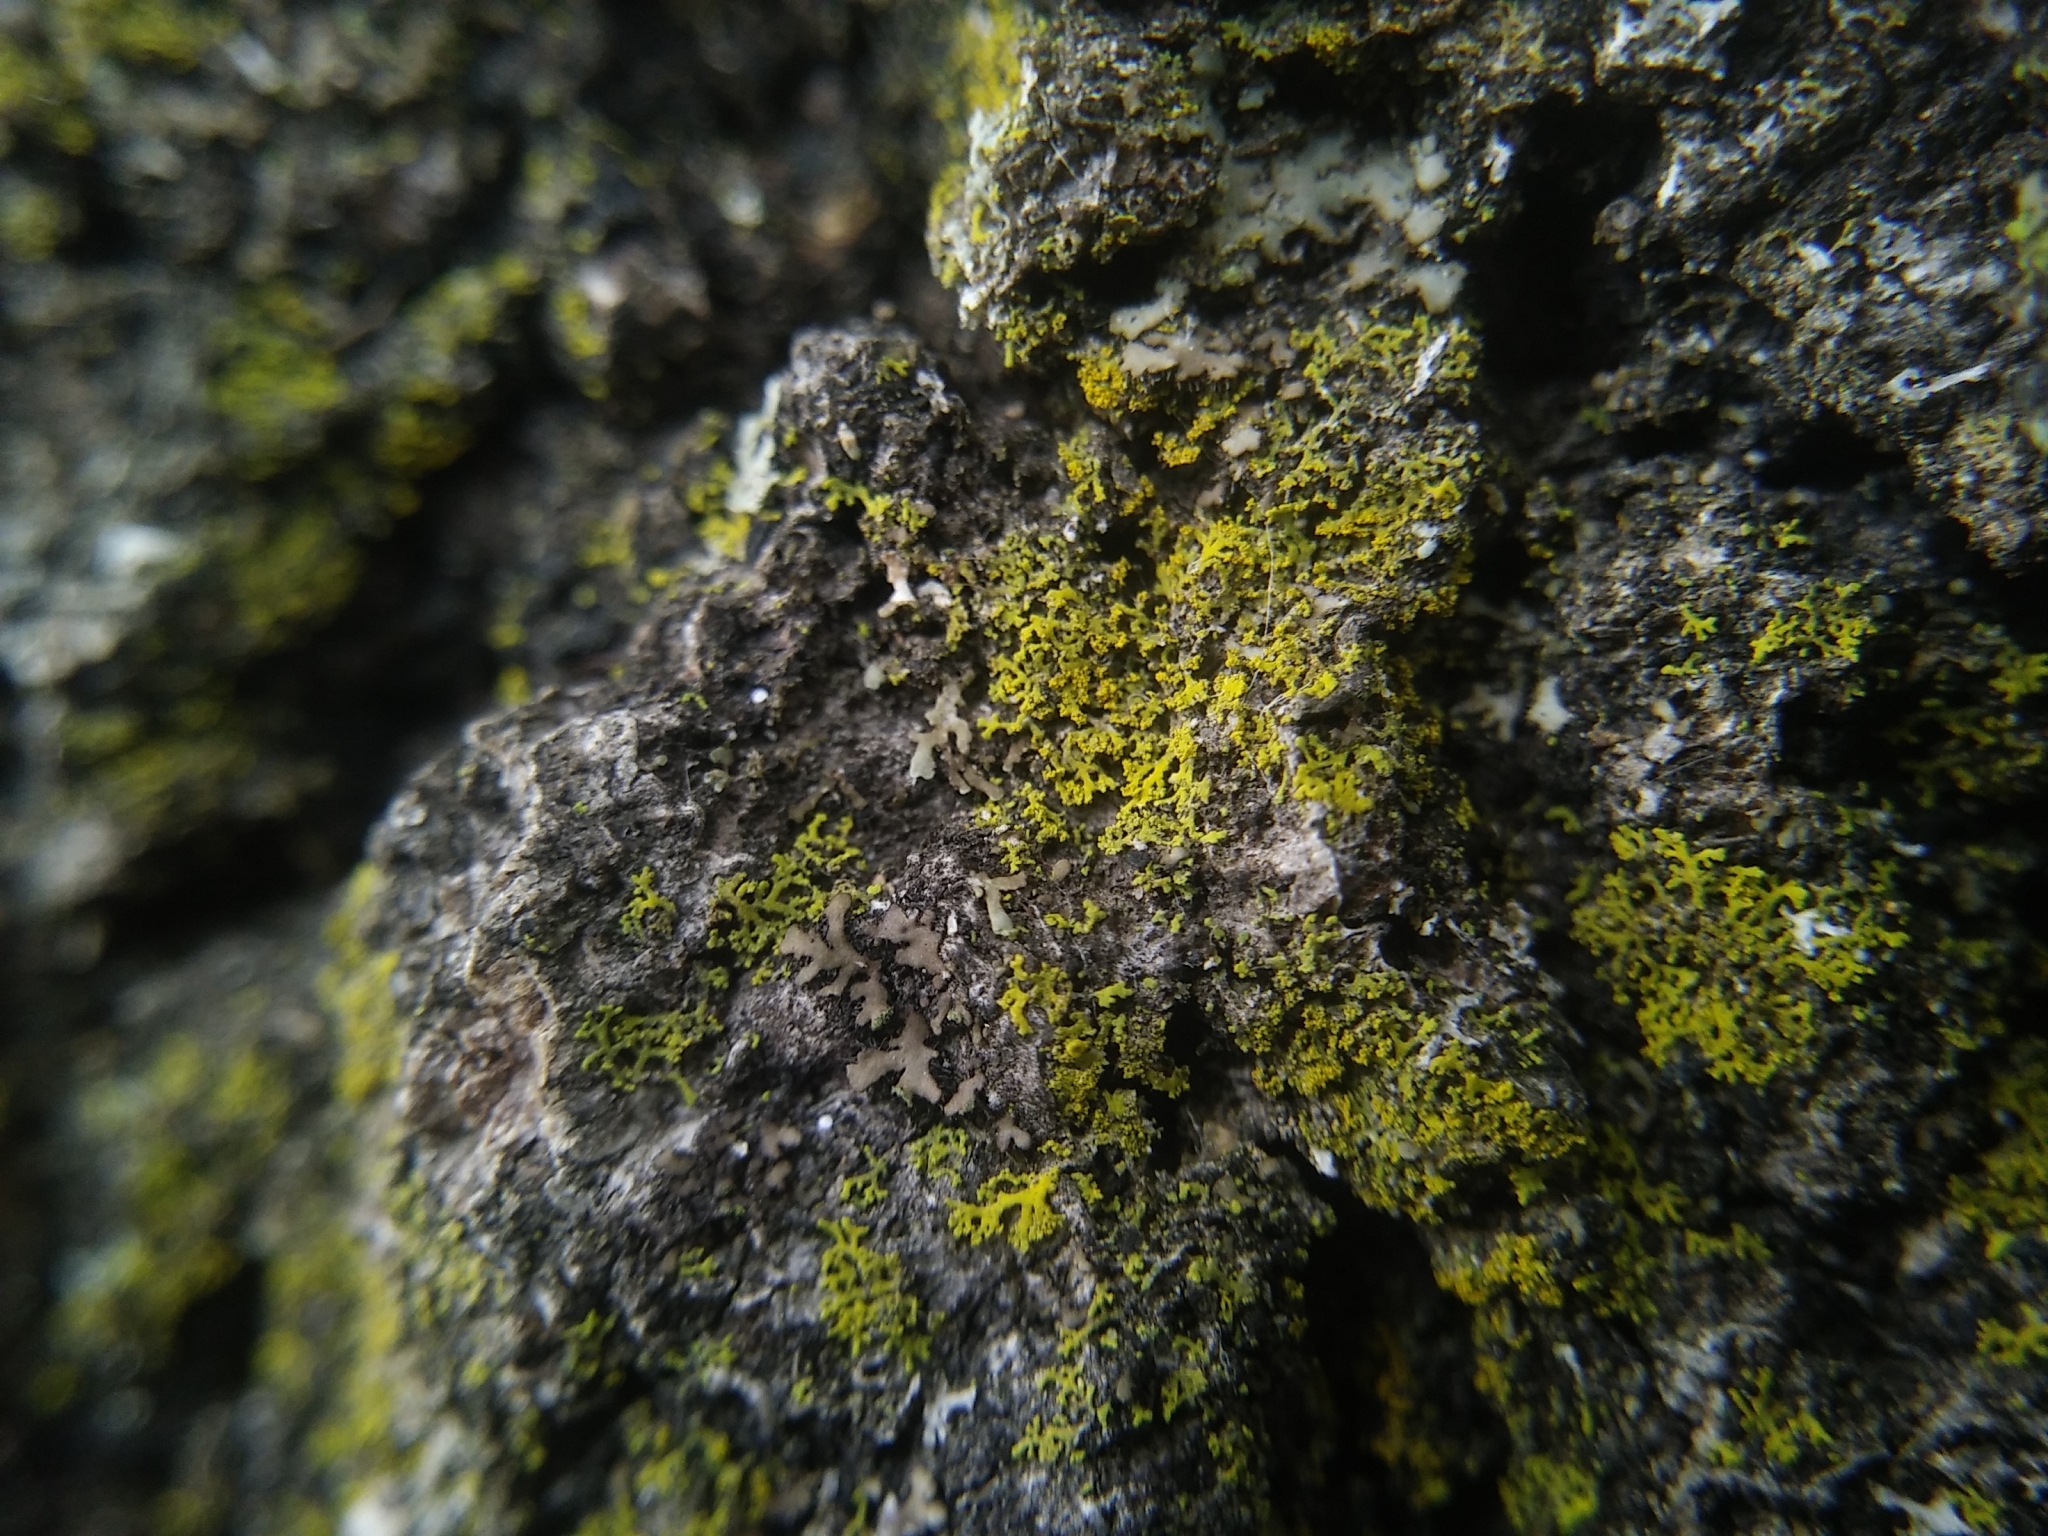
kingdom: Fungi
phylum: Ascomycota
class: Candelariomycetes
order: Candelariales
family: Candelariaceae
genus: Candelaria
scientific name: Candelaria concolor
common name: Candleflame lichen
